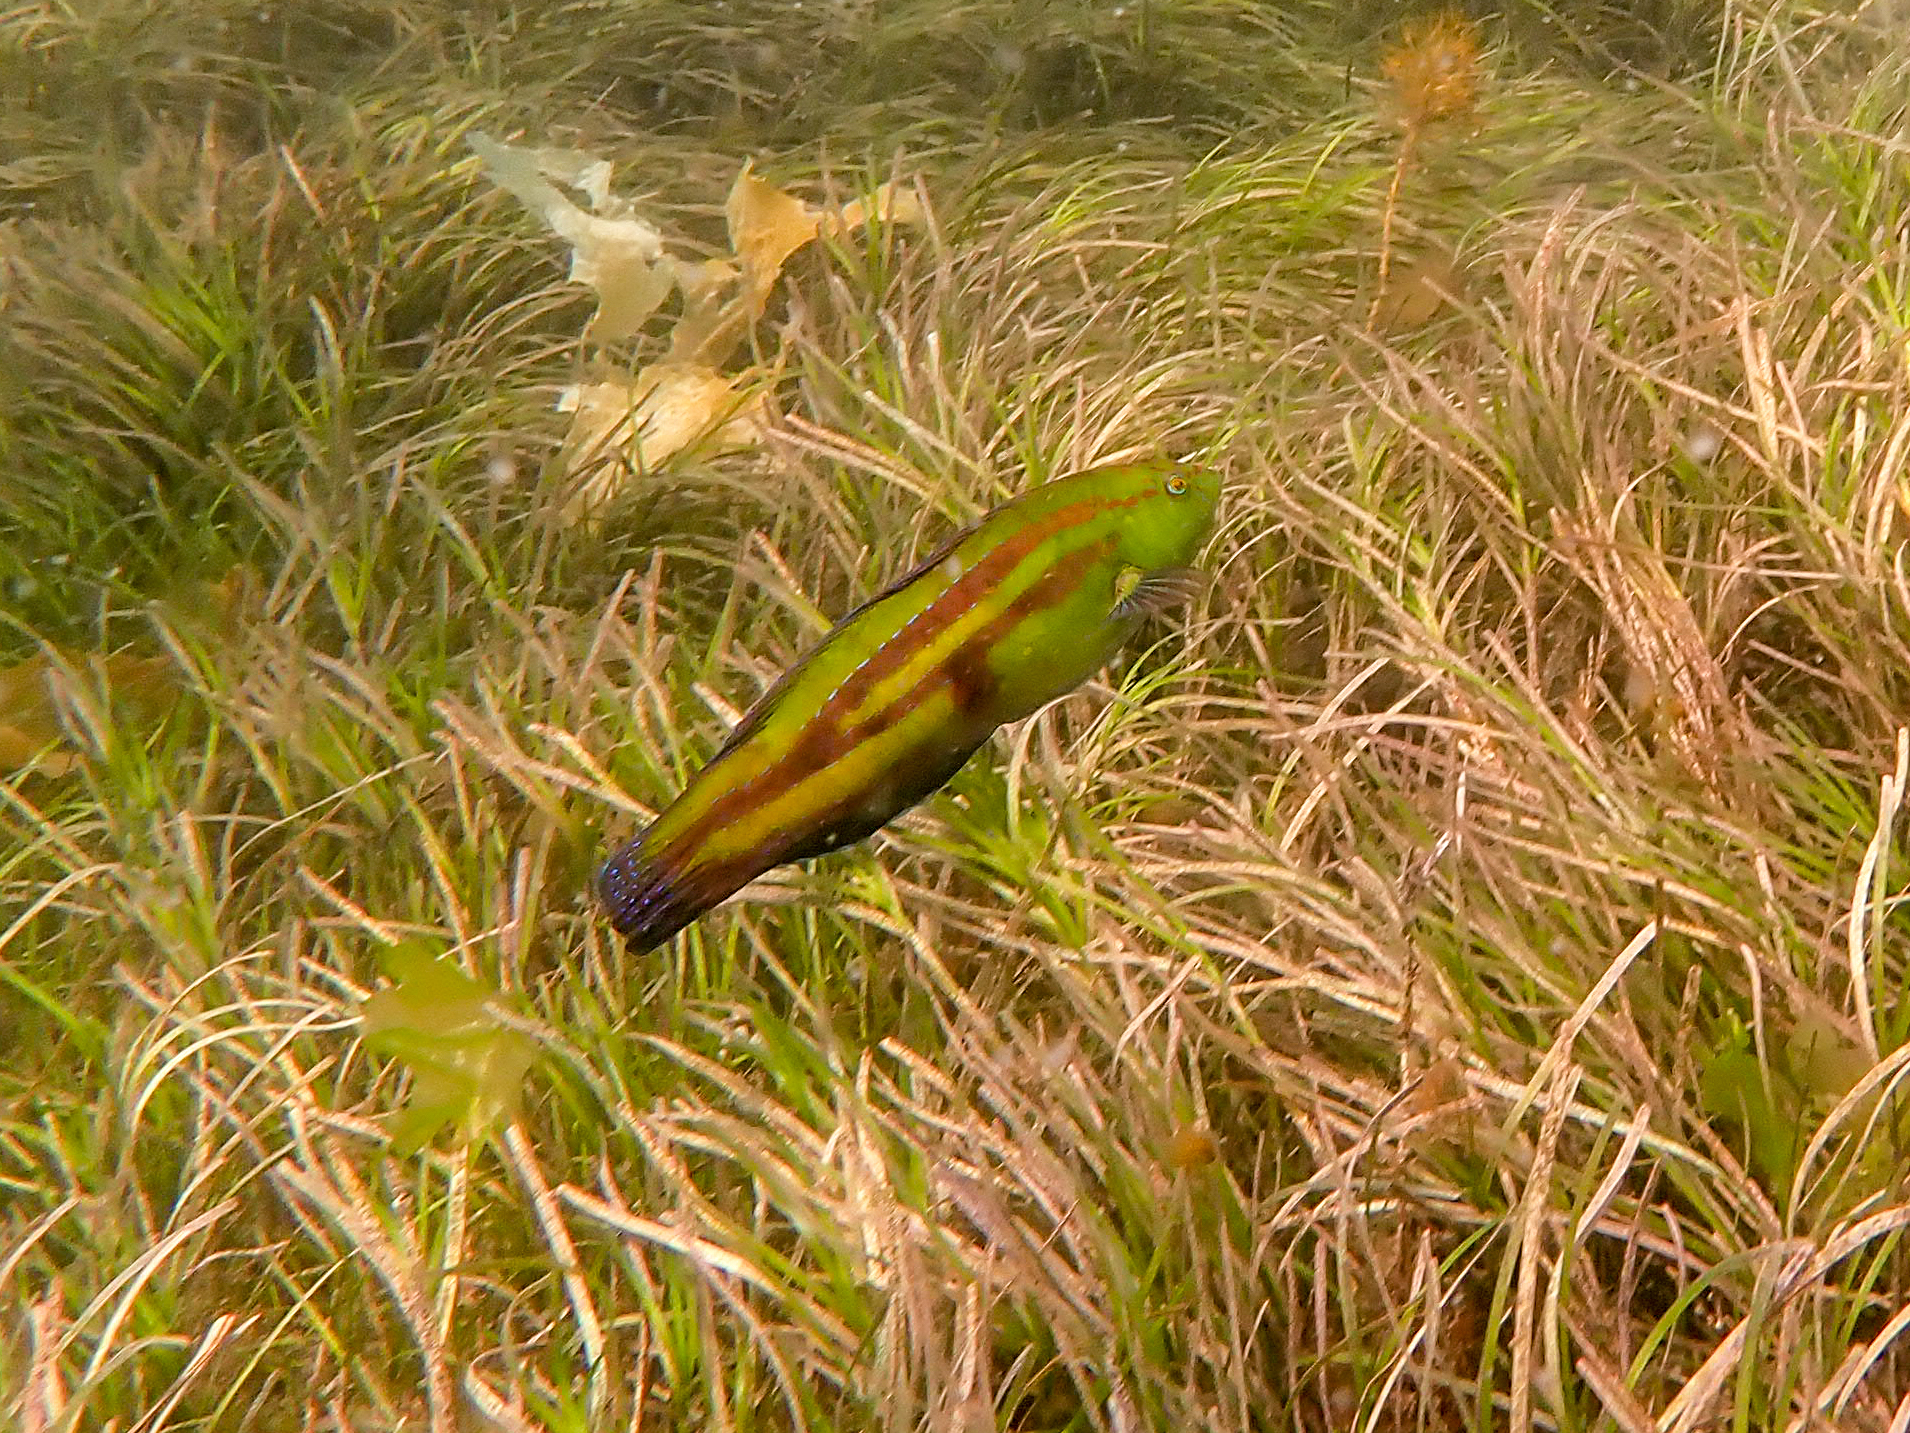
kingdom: Animalia
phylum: Chordata
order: Perciformes
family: Labridae
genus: Pictilabrus
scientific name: Pictilabrus laticlavius
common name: Patrician wrasse
